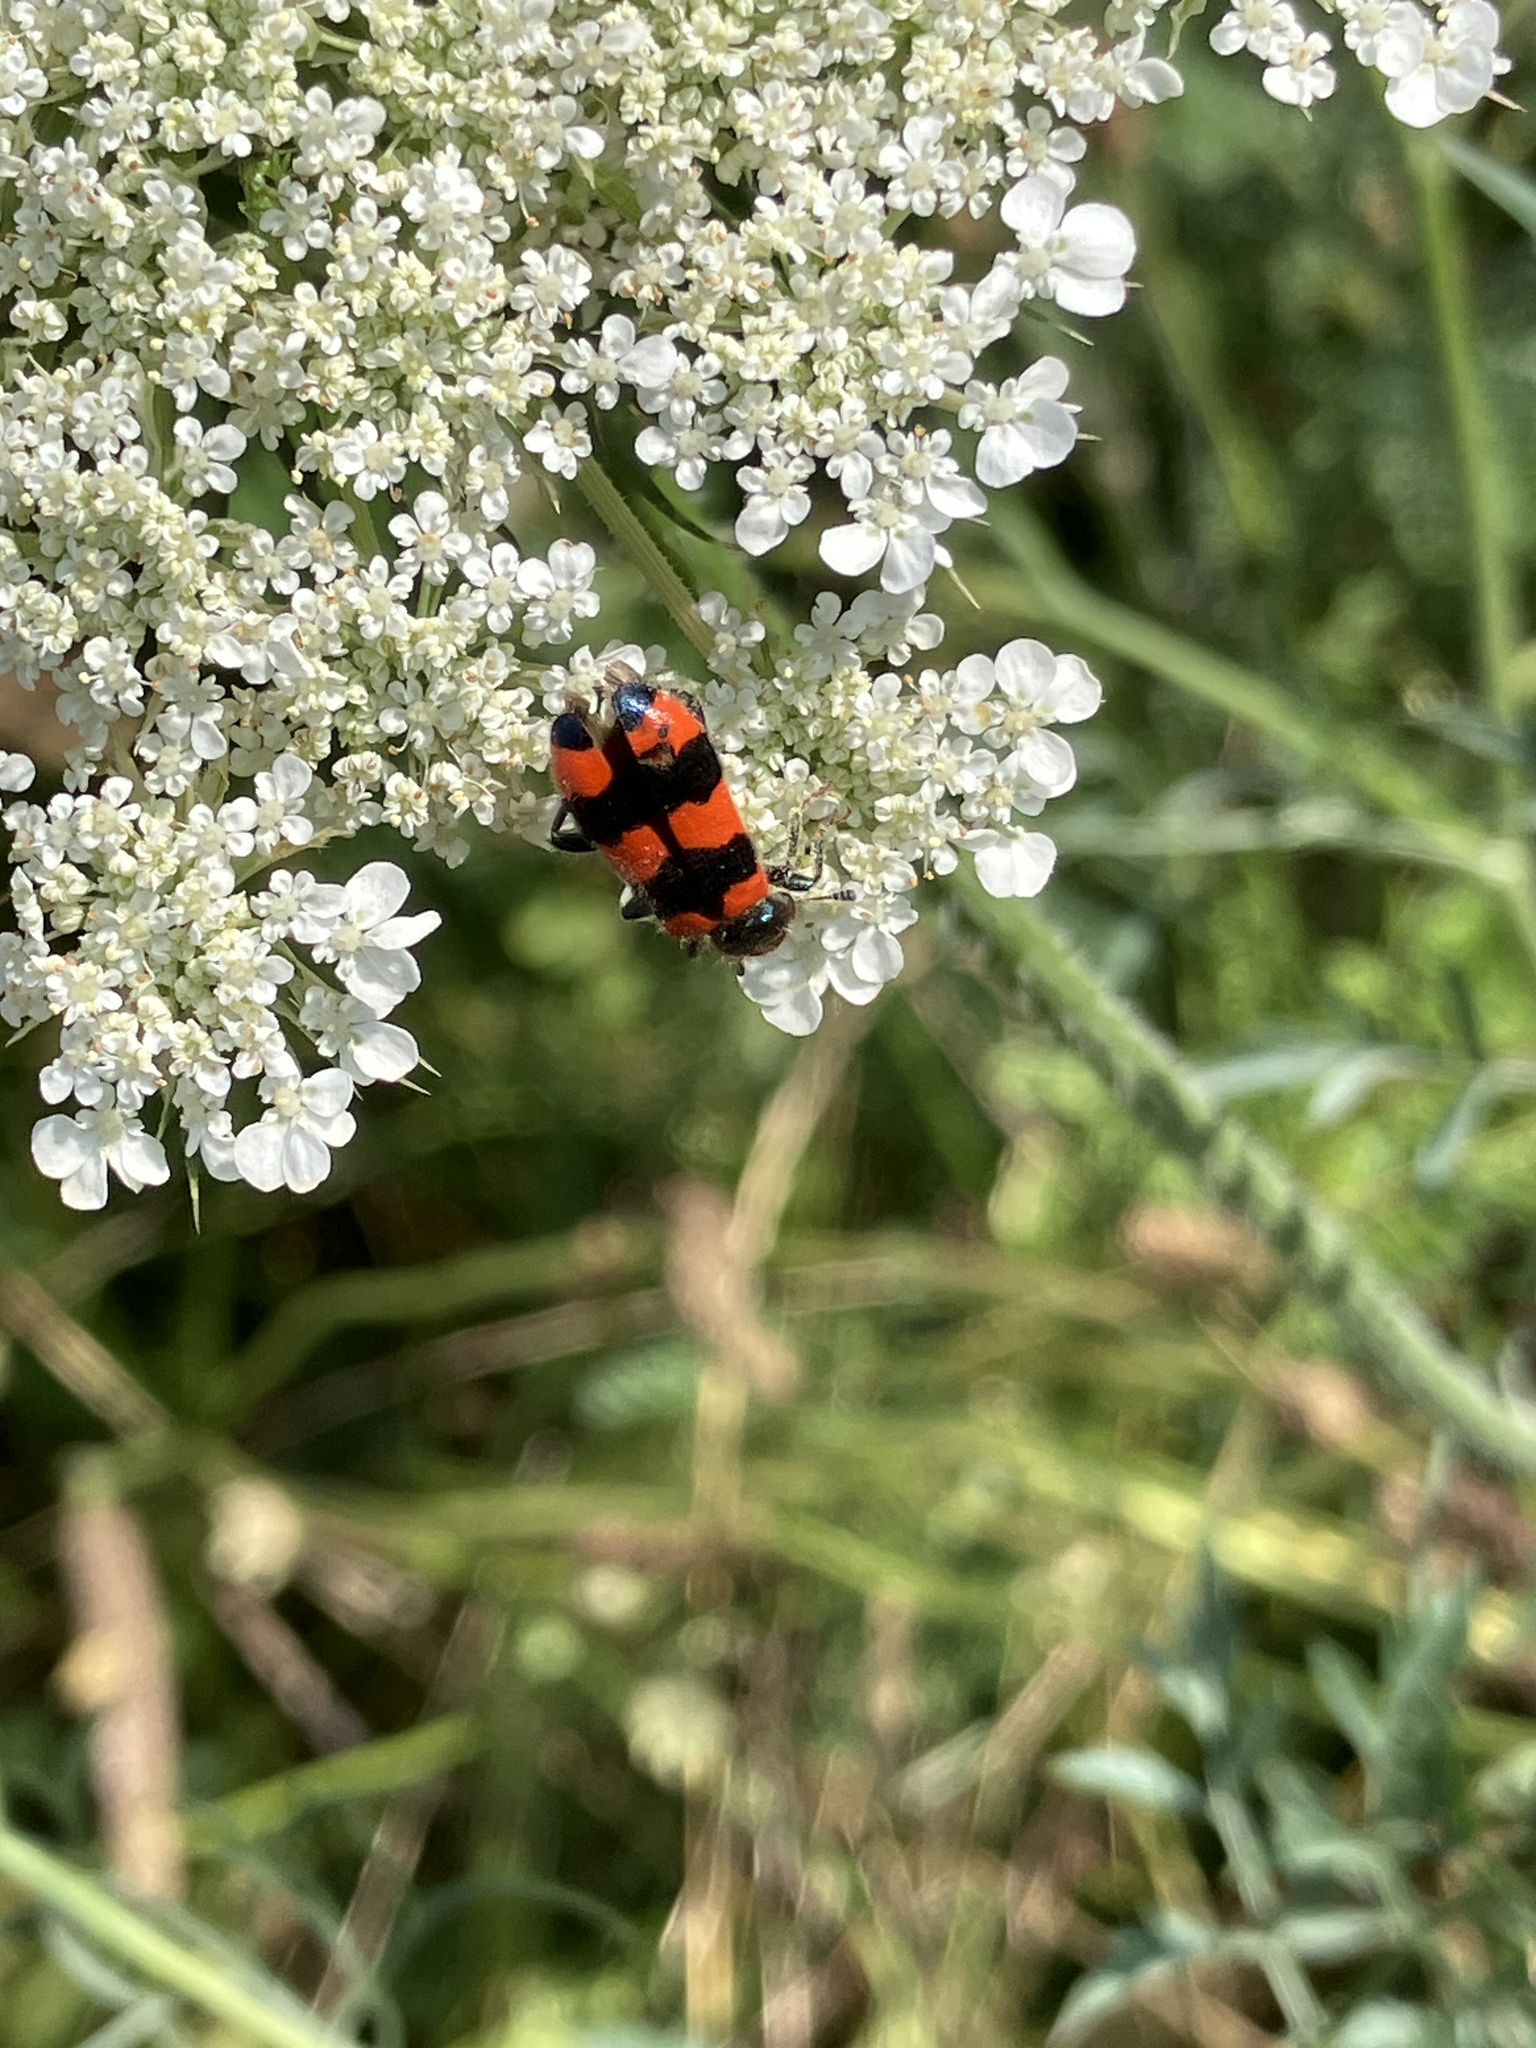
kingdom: Animalia
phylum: Arthropoda
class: Insecta
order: Coleoptera
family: Cleridae
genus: Trichodes
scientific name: Trichodes apiarius
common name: Bee-eating beetle
